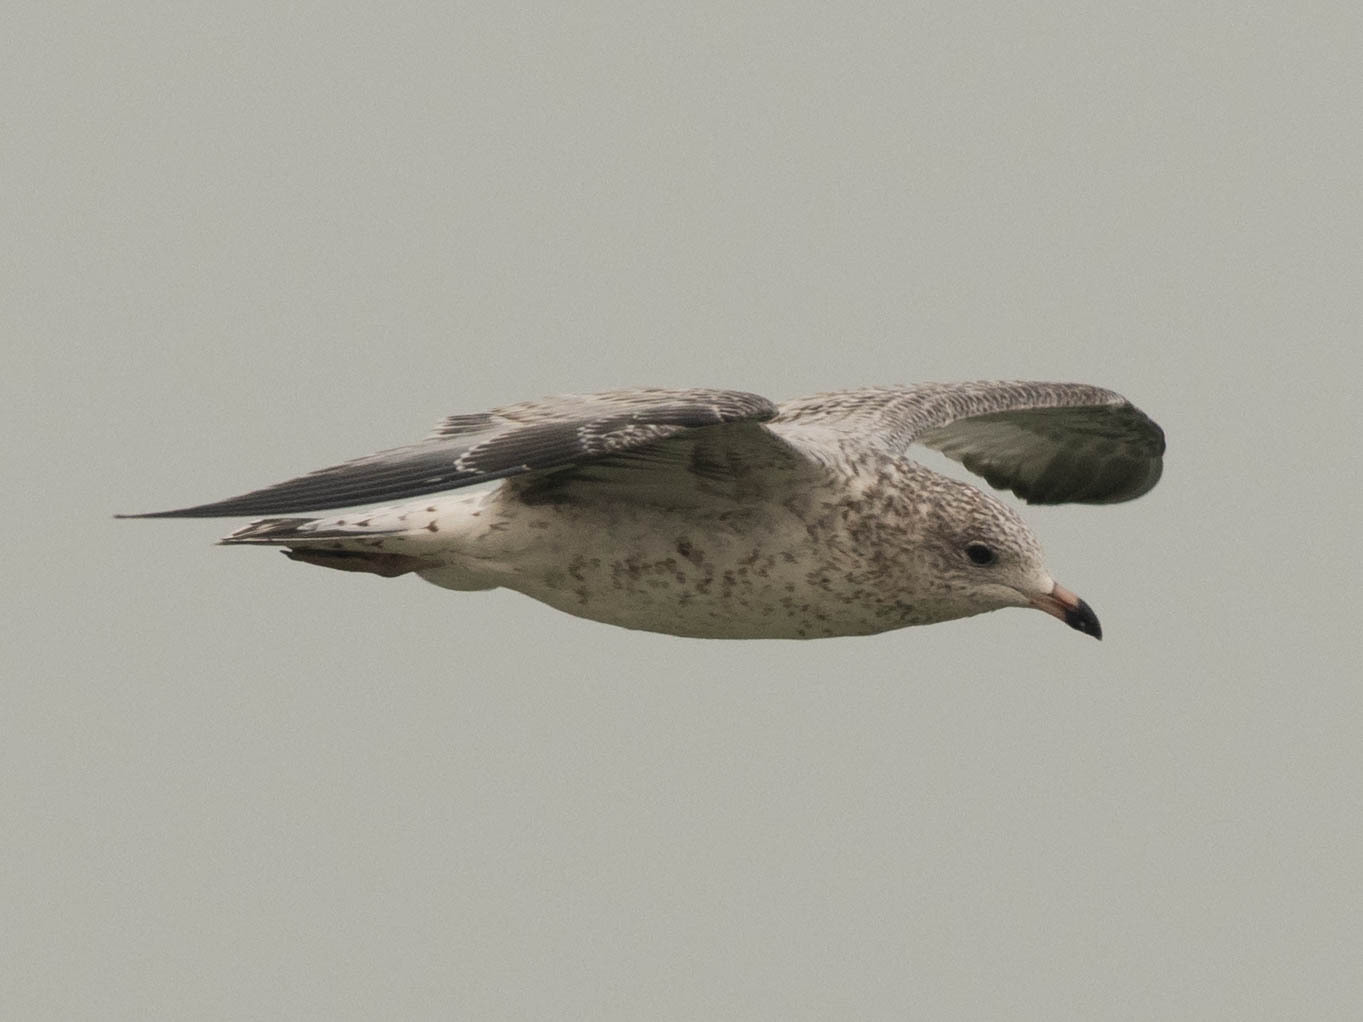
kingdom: Animalia
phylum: Chordata
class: Aves
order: Charadriiformes
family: Laridae
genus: Larus
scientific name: Larus delawarensis
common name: Ring-billed gull
